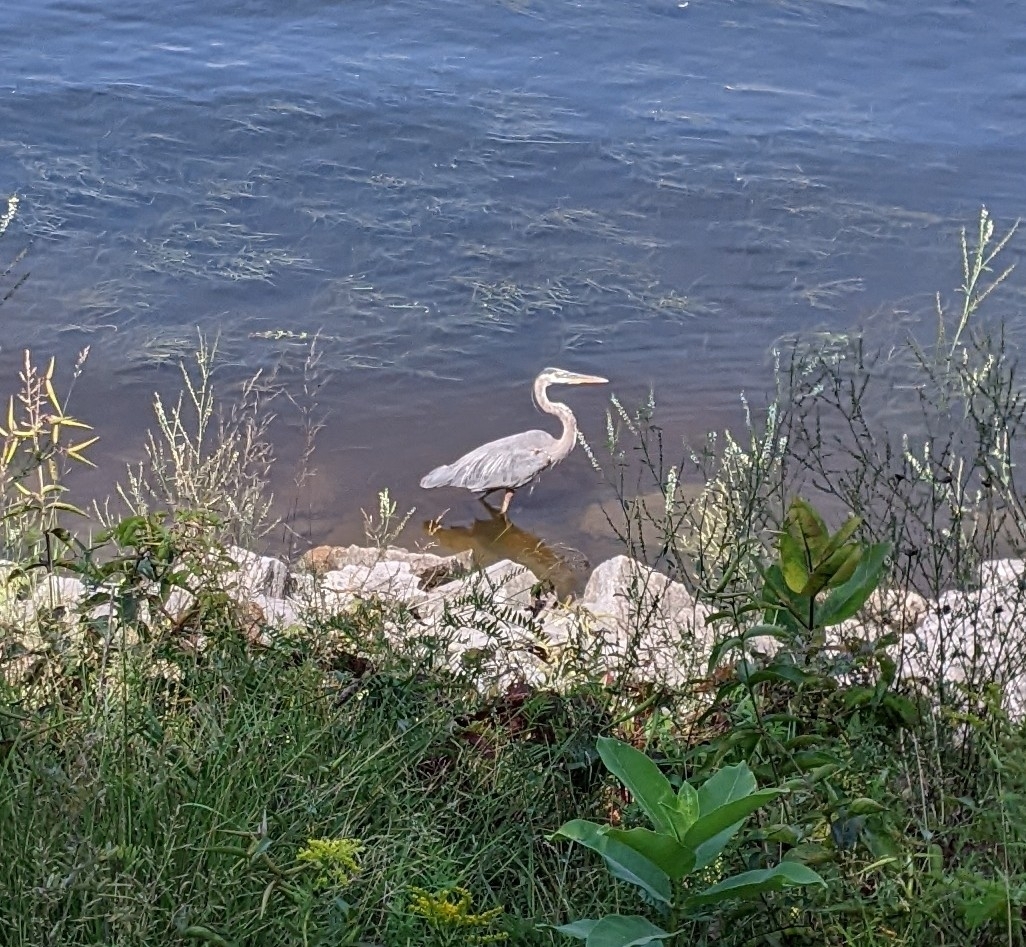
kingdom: Animalia
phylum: Chordata
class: Aves
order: Pelecaniformes
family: Ardeidae
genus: Ardea
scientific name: Ardea herodias
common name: Great blue heron
